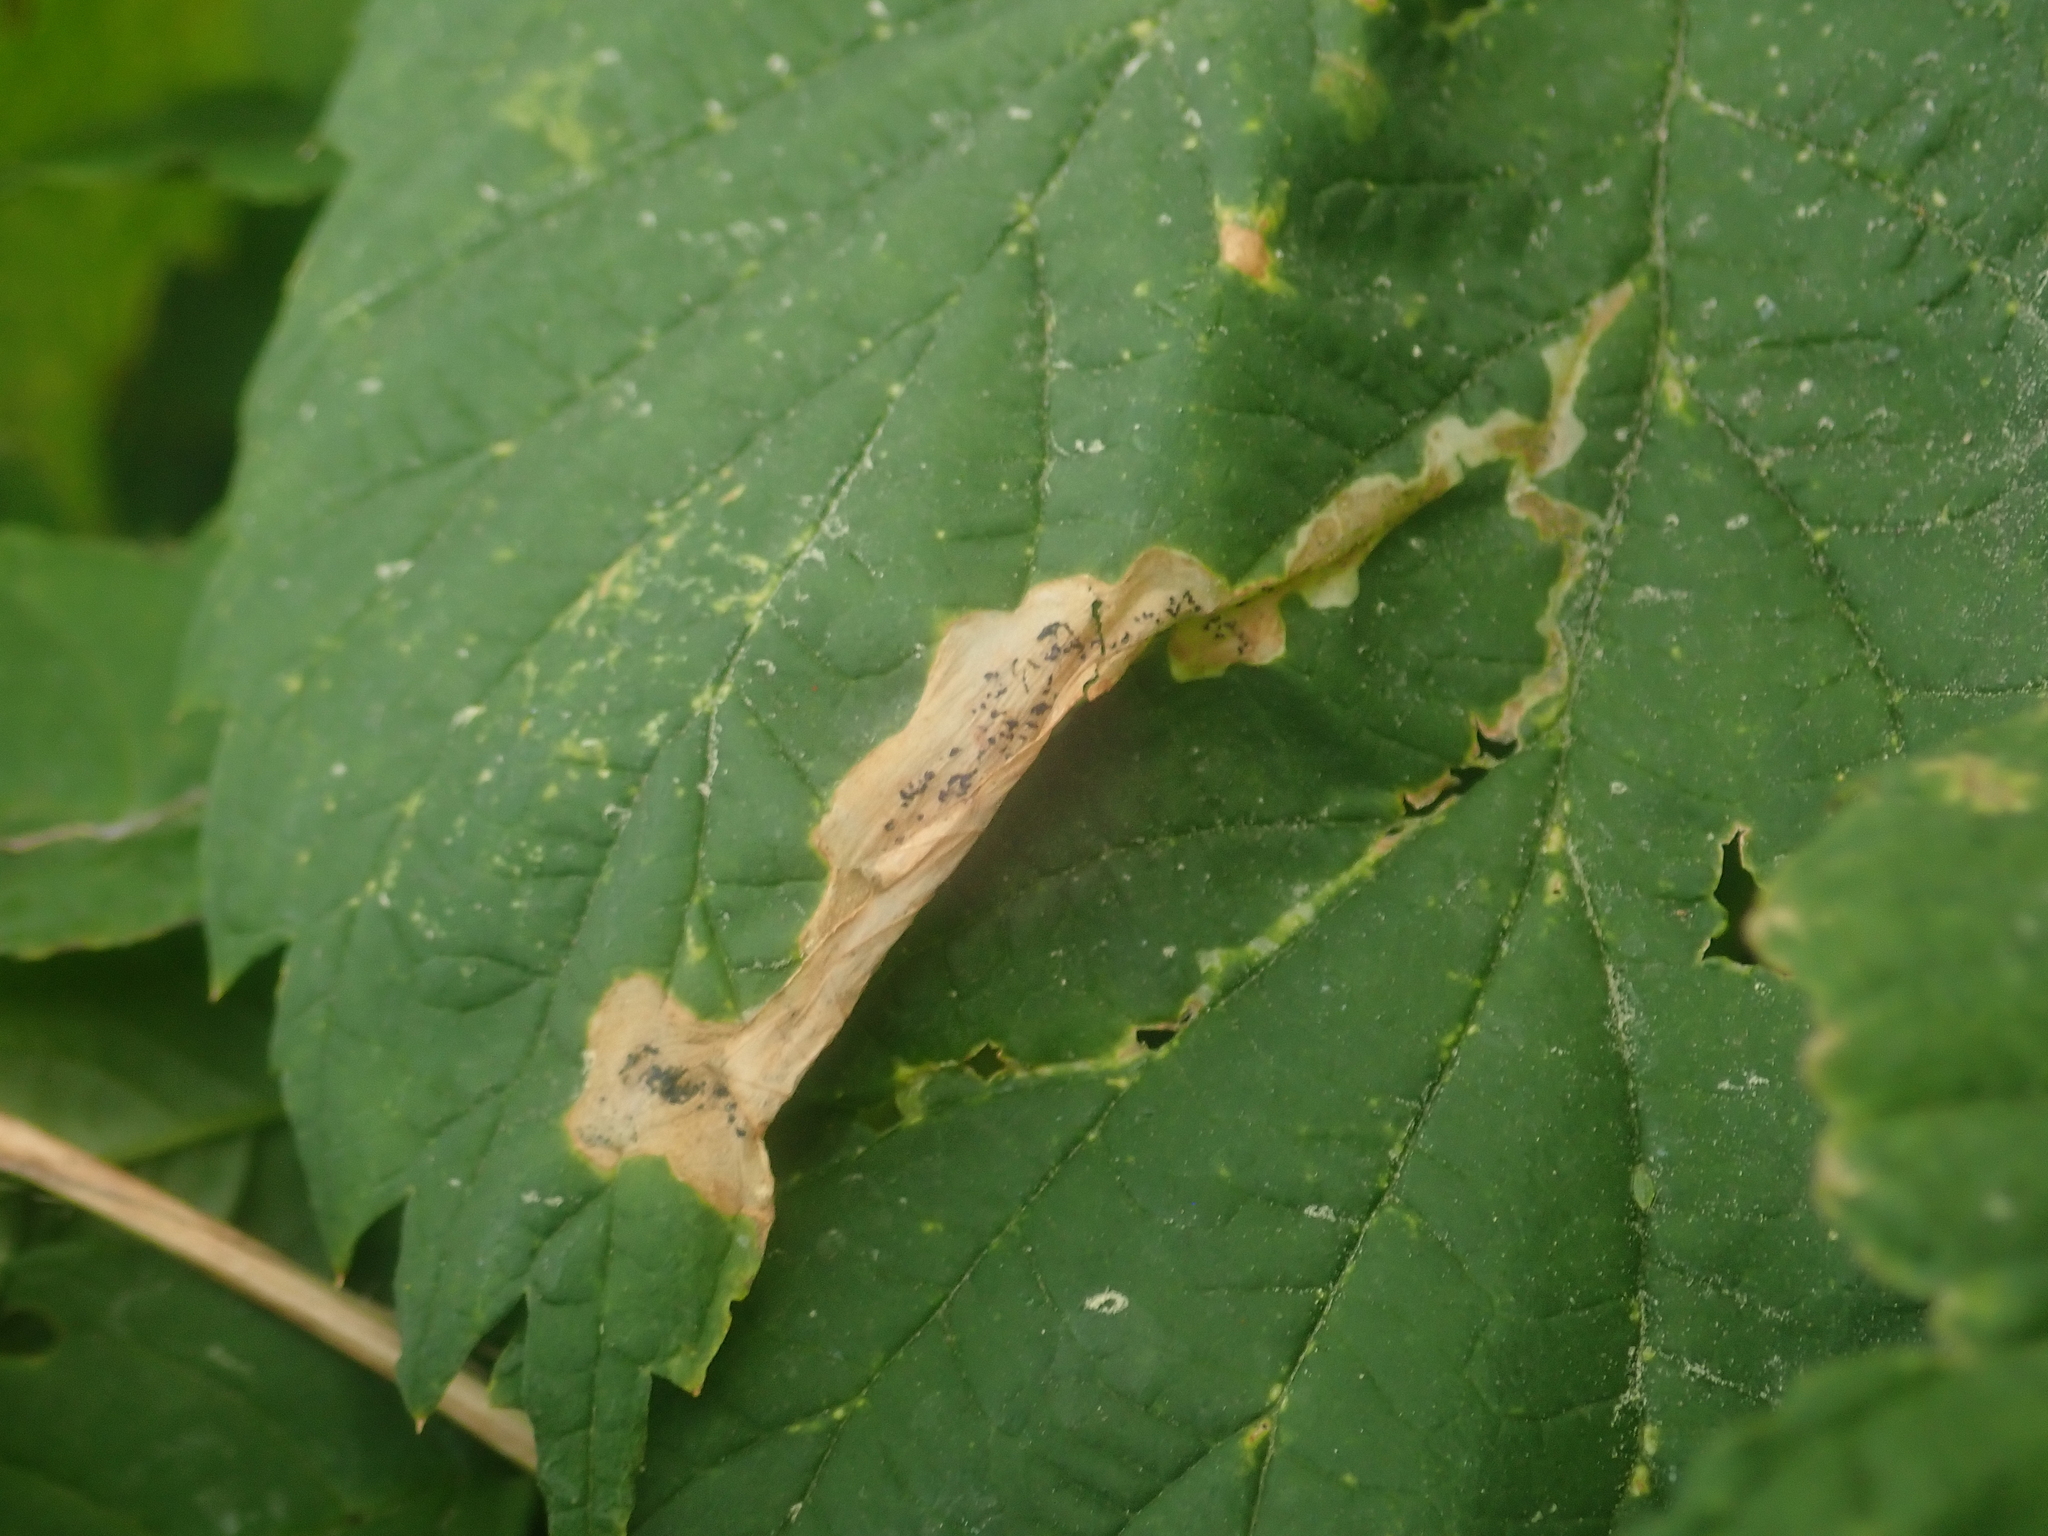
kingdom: Animalia
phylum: Arthropoda
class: Insecta
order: Diptera
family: Agromyzidae
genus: Agromyza
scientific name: Agromyza igniceps
